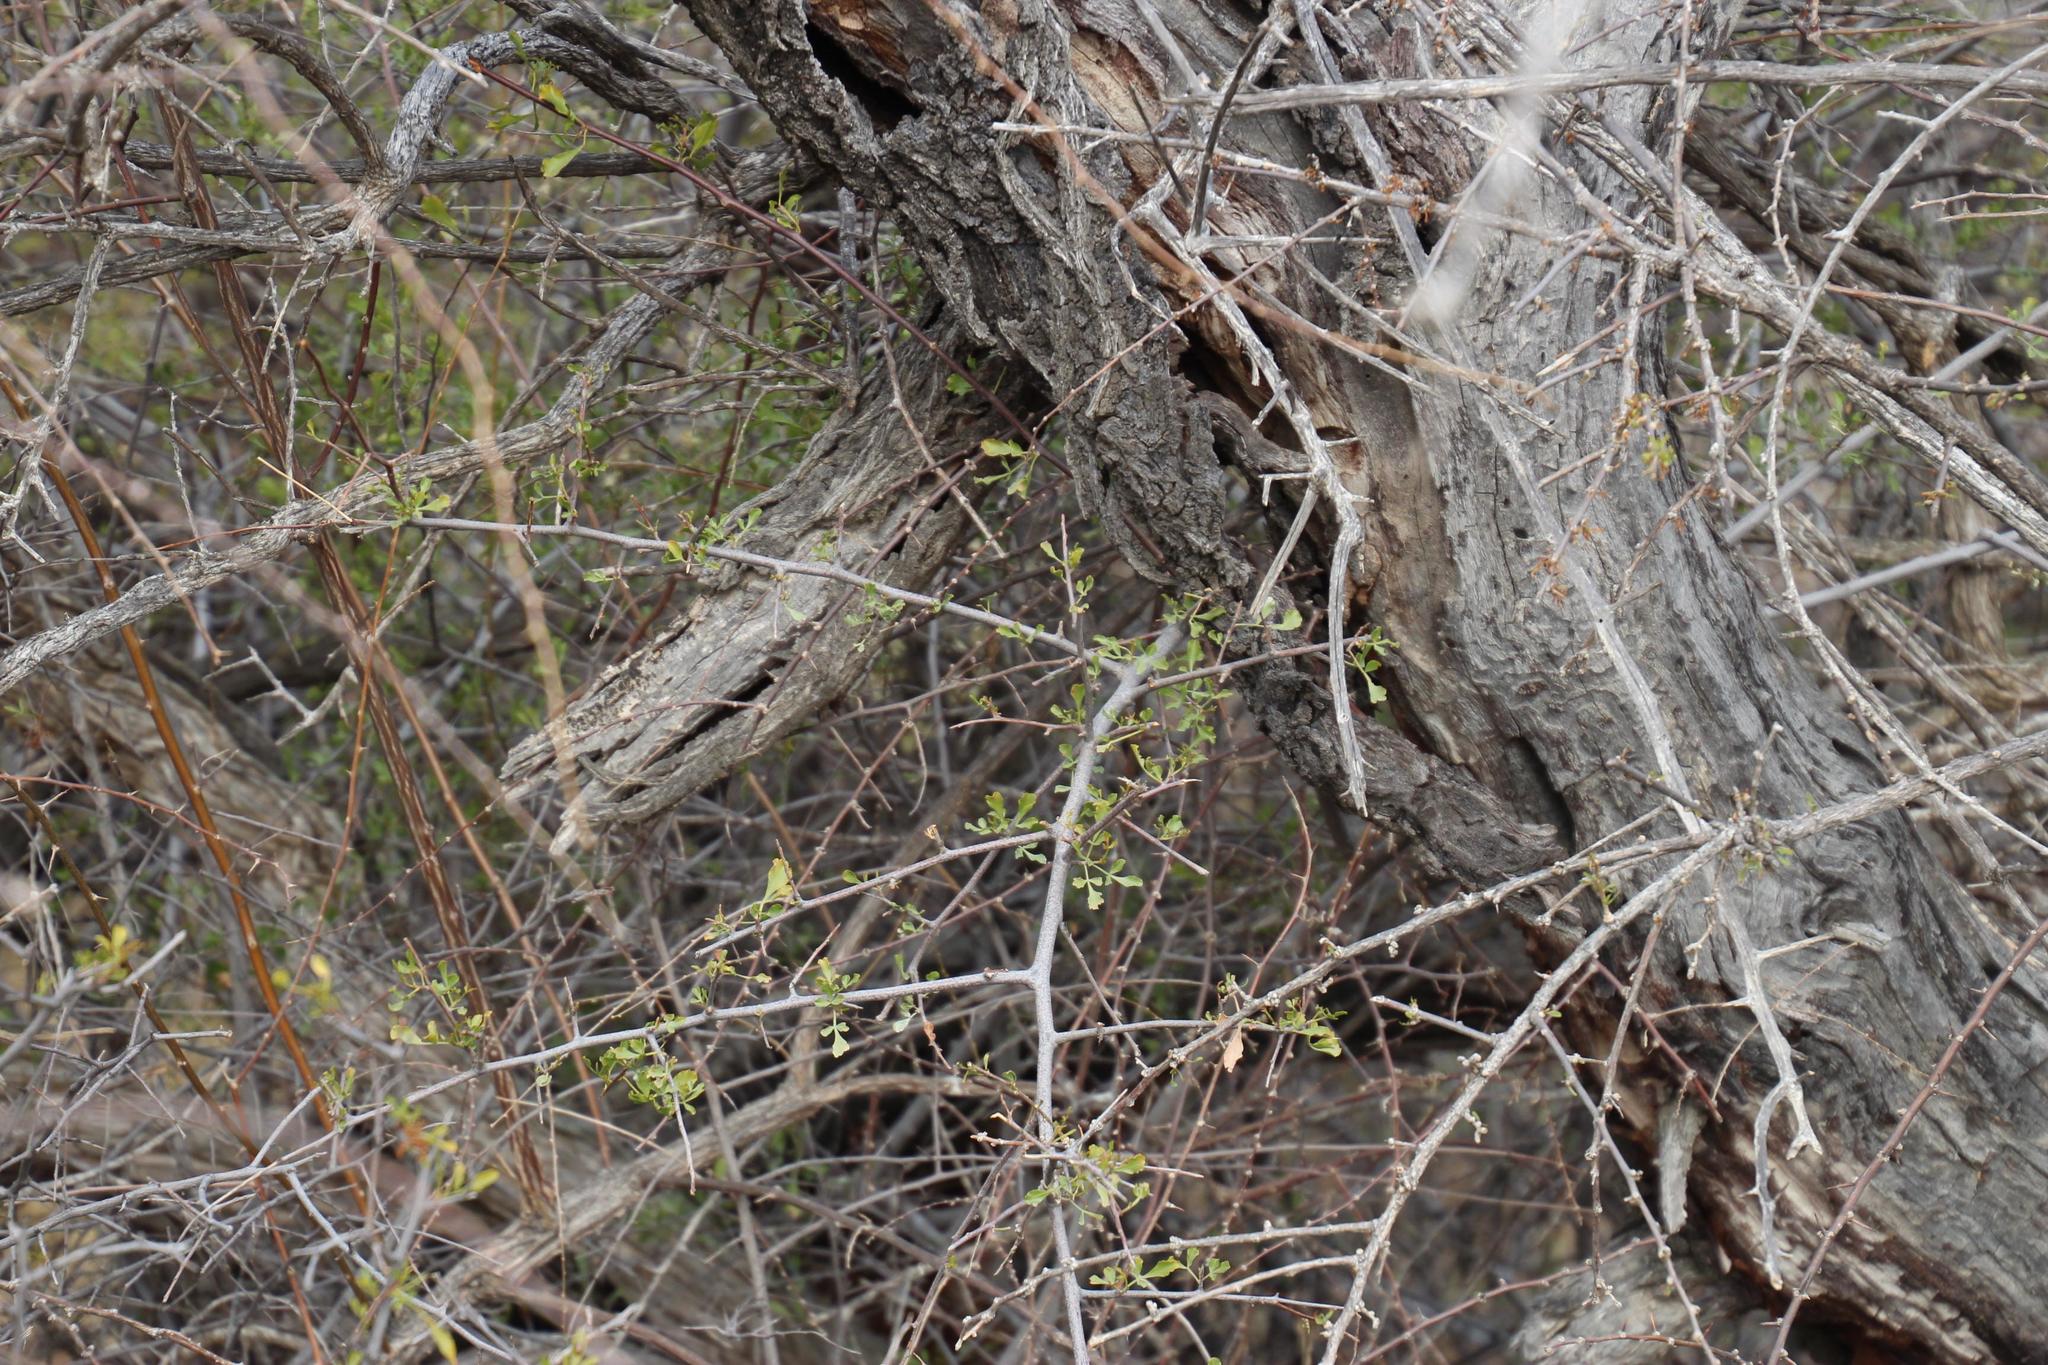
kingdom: Plantae
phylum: Tracheophyta
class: Magnoliopsida
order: Sapindales
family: Anacardiaceae
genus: Searsia
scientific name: Searsia undulata
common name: Namaqua kunibush
